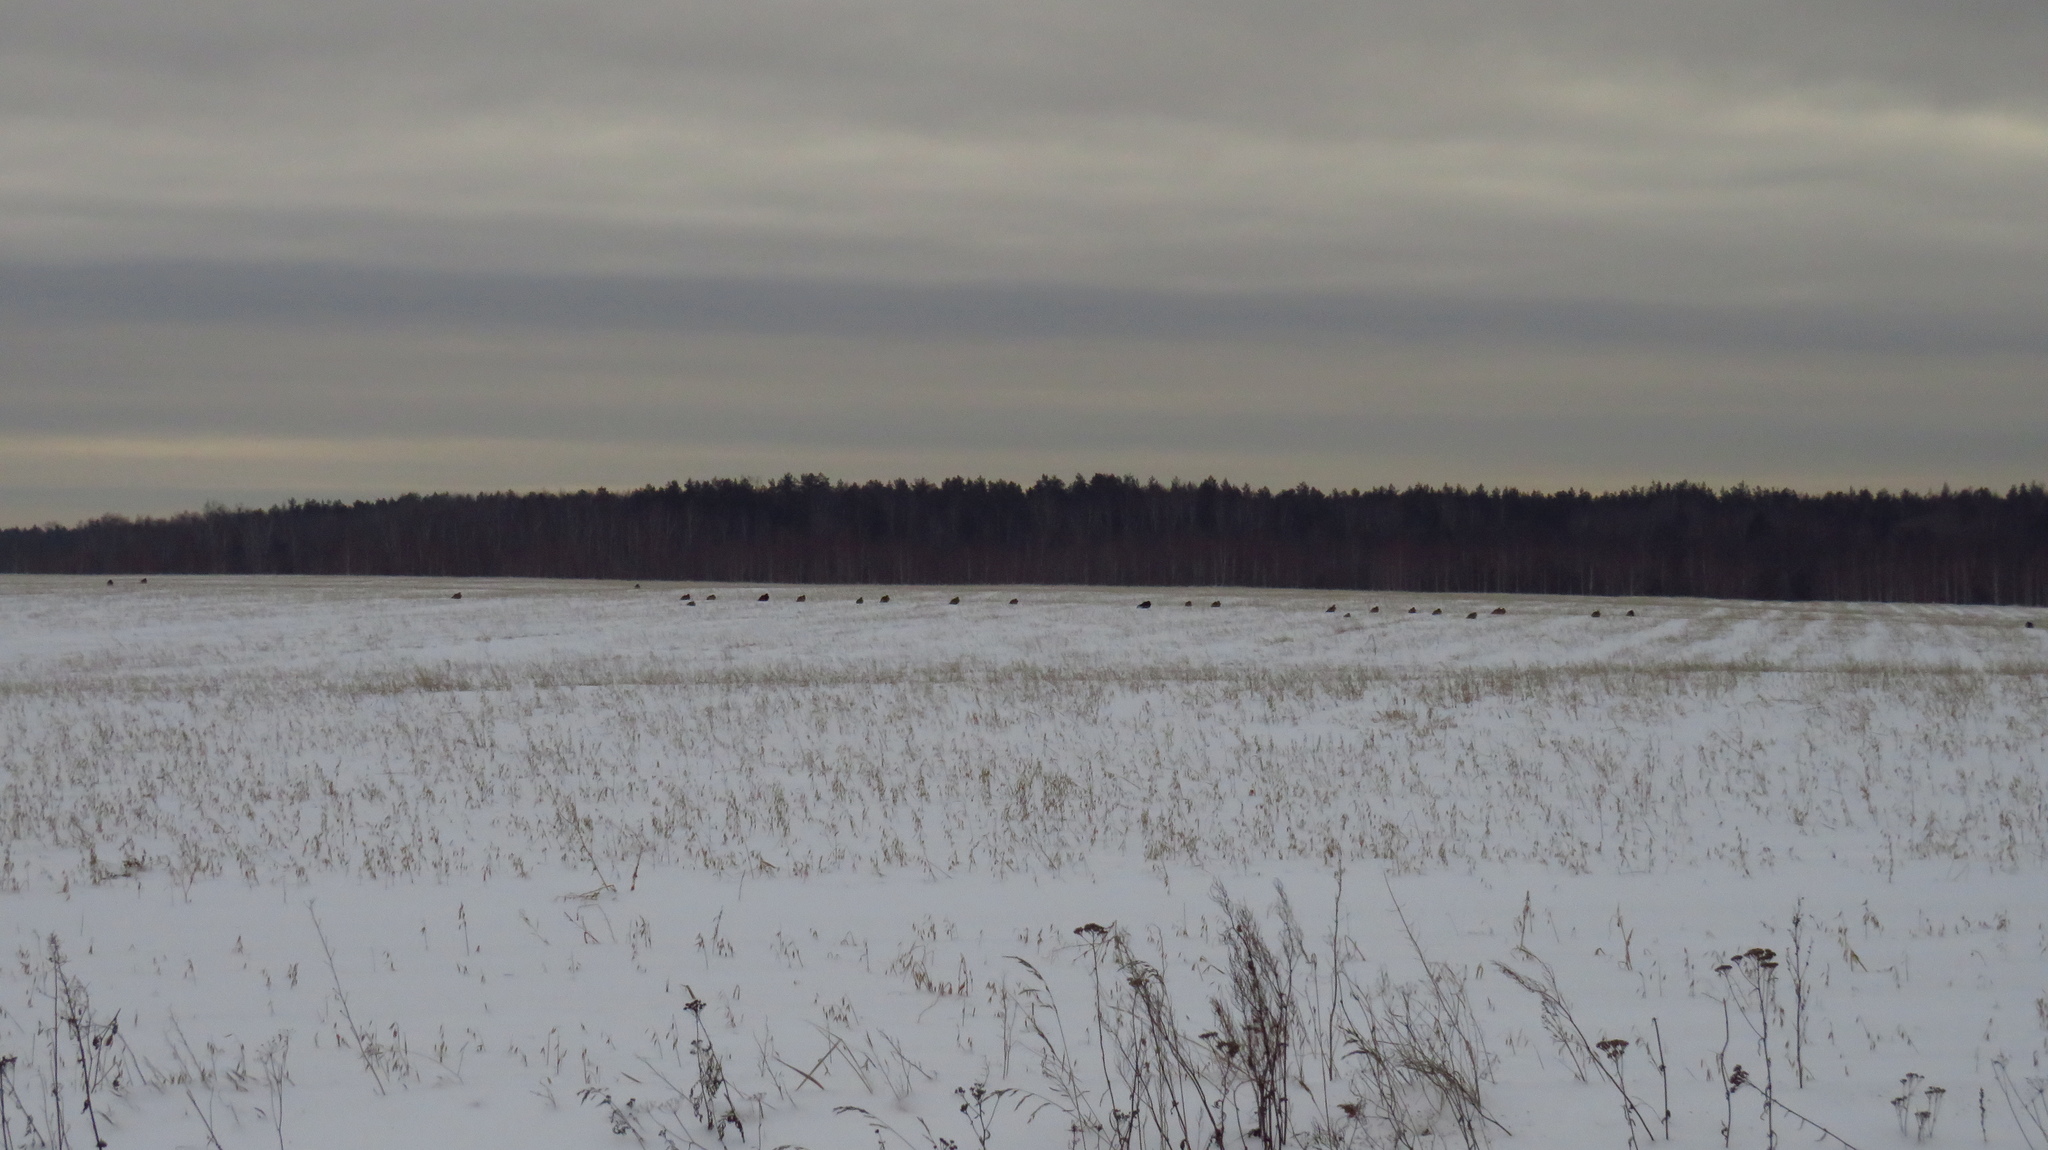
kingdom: Animalia
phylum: Chordata
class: Aves
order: Galliformes
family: Phasianidae
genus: Lyrurus
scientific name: Lyrurus tetrix
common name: Black grouse
